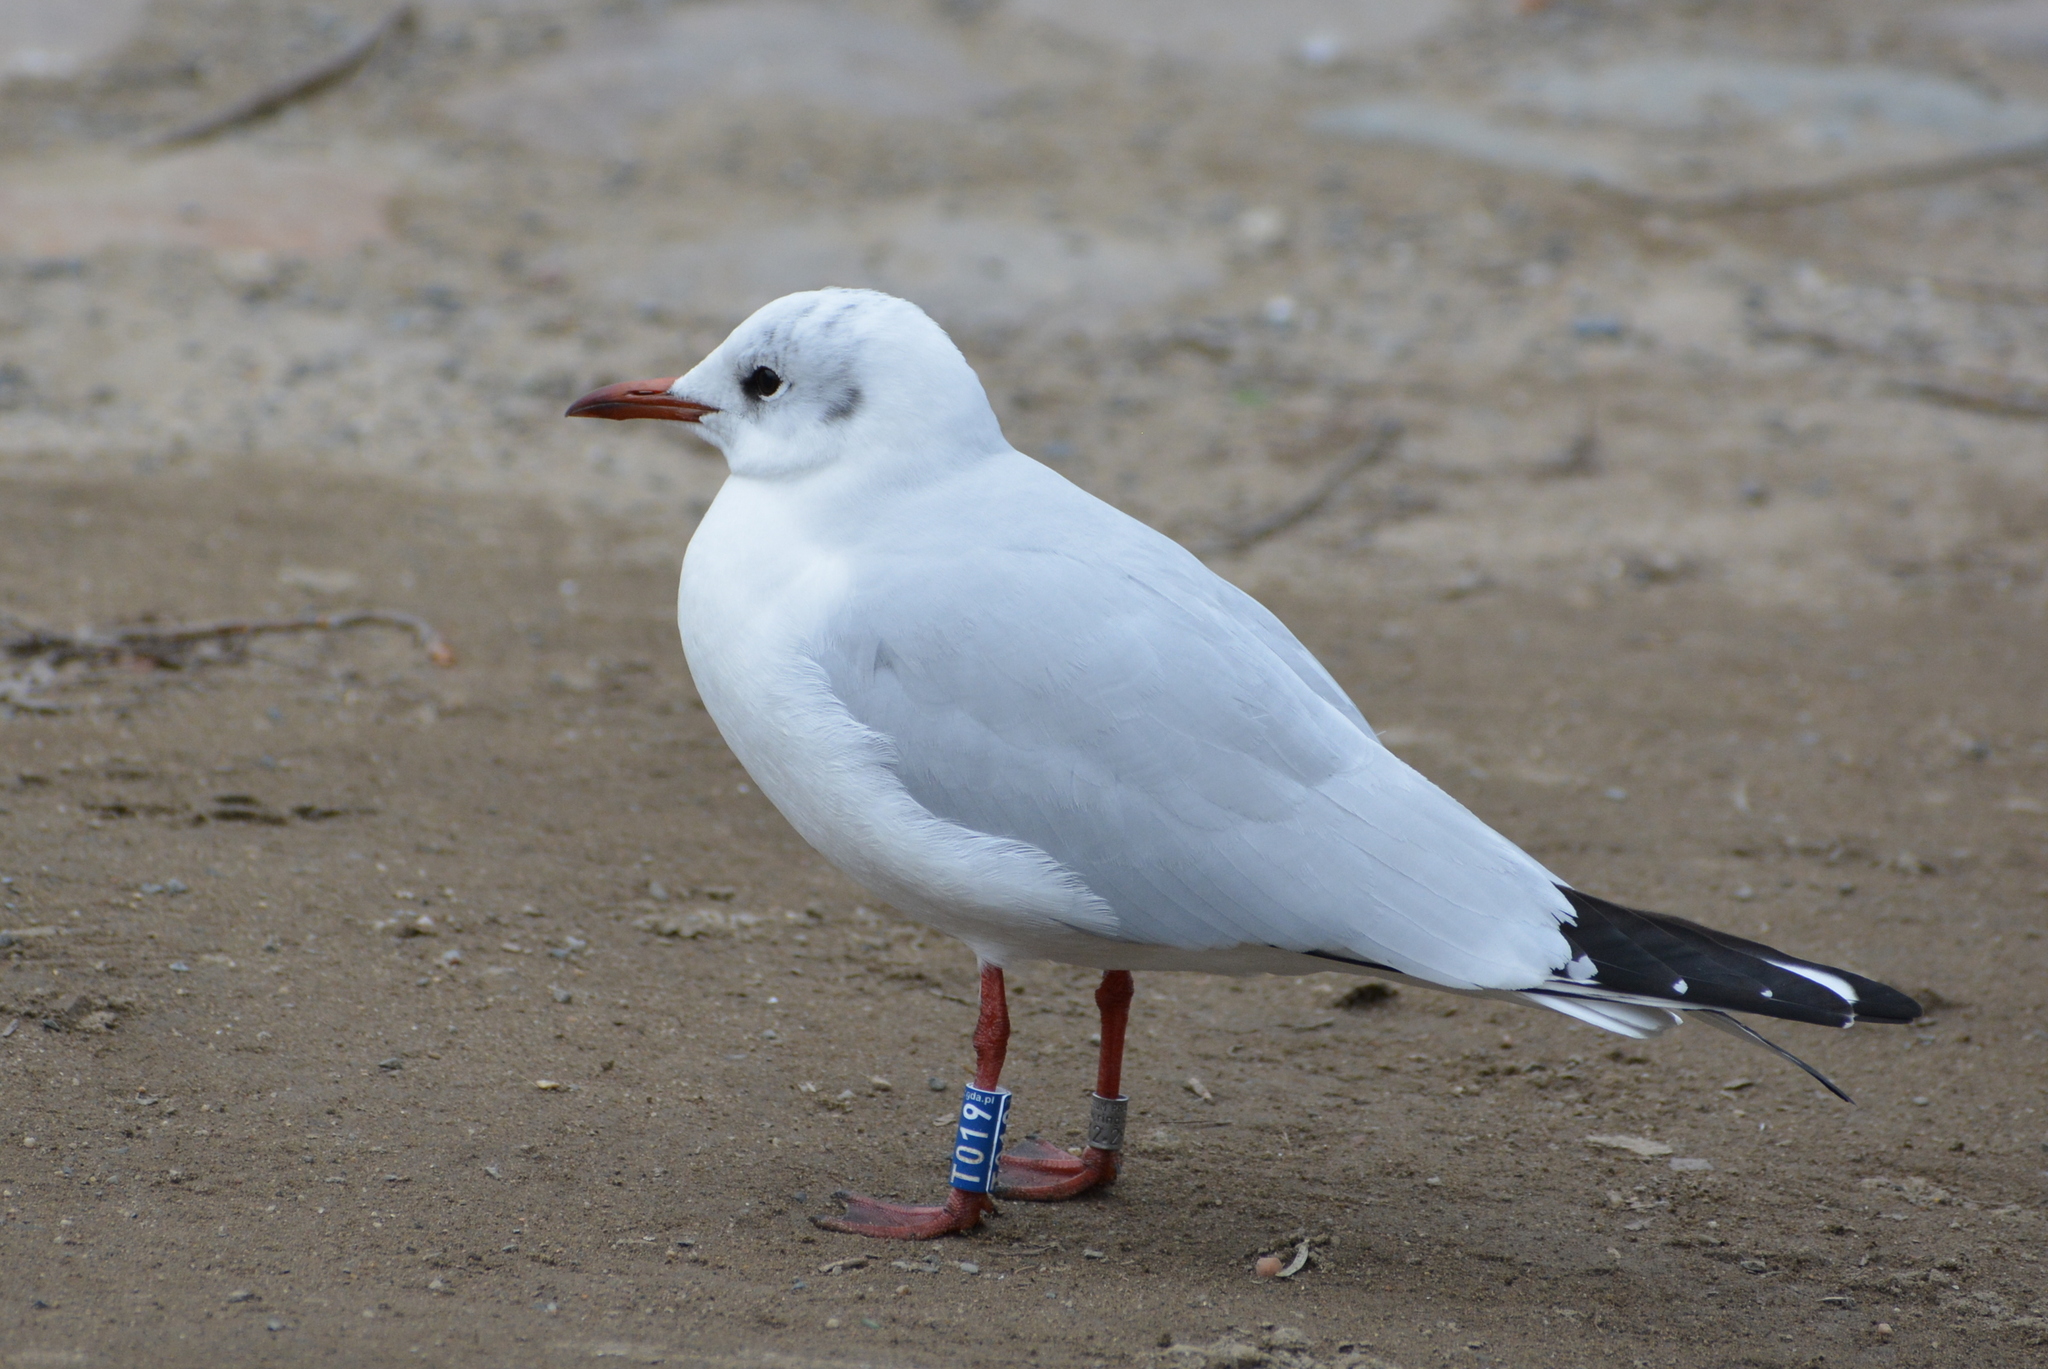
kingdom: Animalia
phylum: Chordata
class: Aves
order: Charadriiformes
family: Laridae
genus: Chroicocephalus
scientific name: Chroicocephalus ridibundus
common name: Black-headed gull
